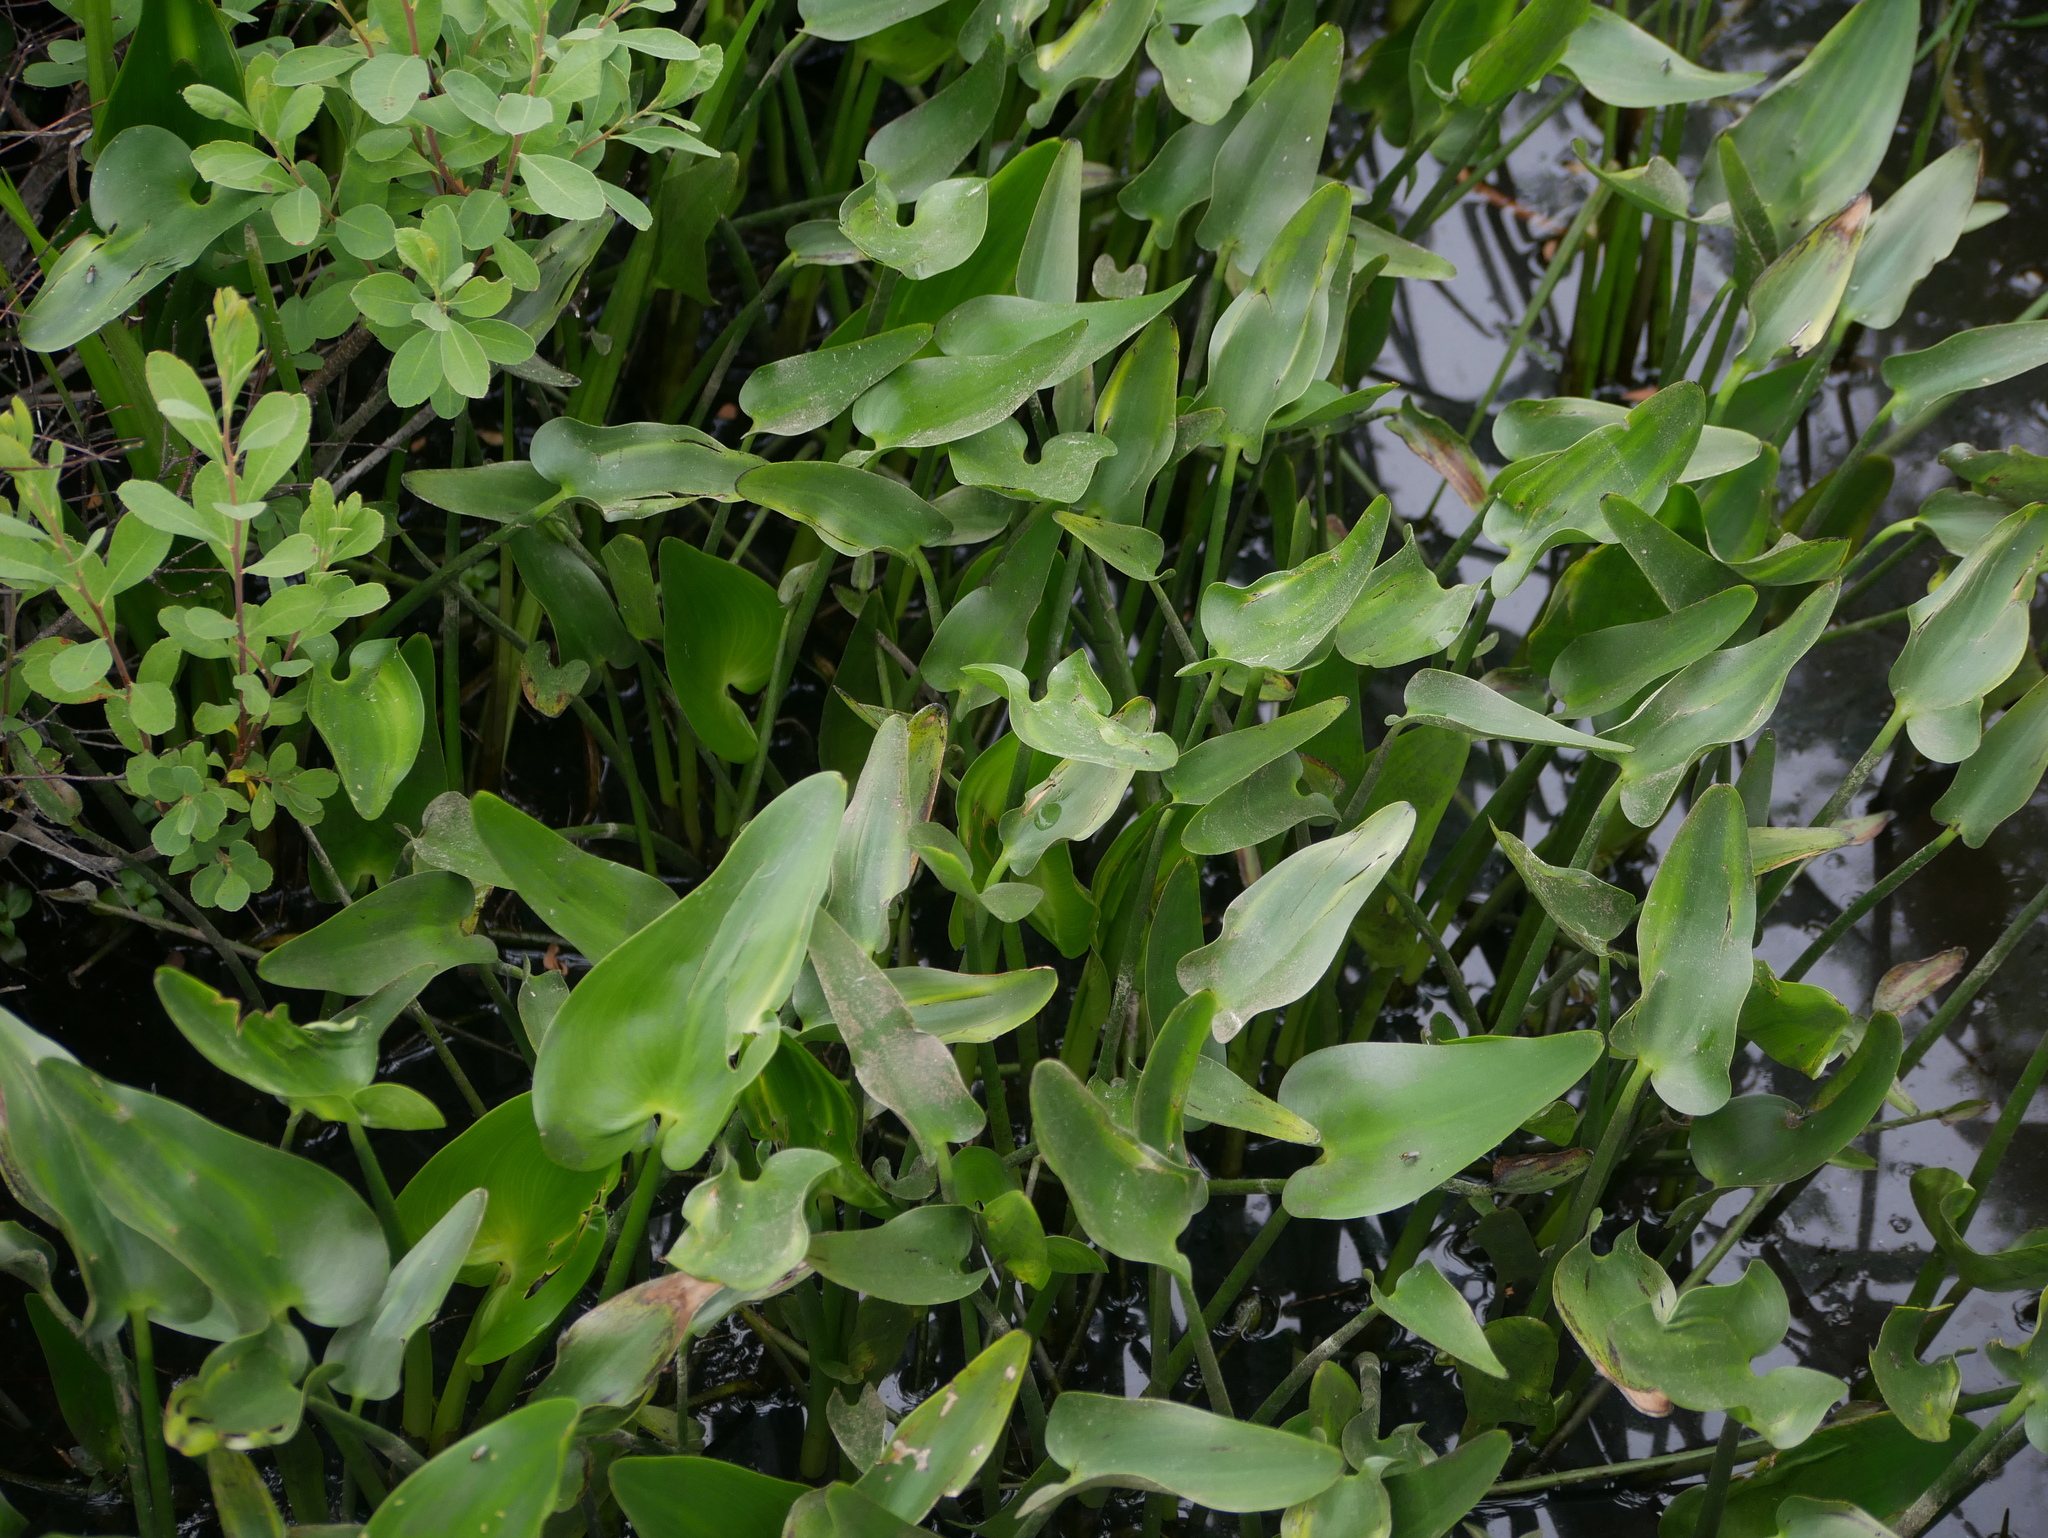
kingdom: Plantae
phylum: Tracheophyta
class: Liliopsida
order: Commelinales
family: Pontederiaceae
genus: Pontederia
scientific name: Pontederia cordata
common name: Pickerelweed
